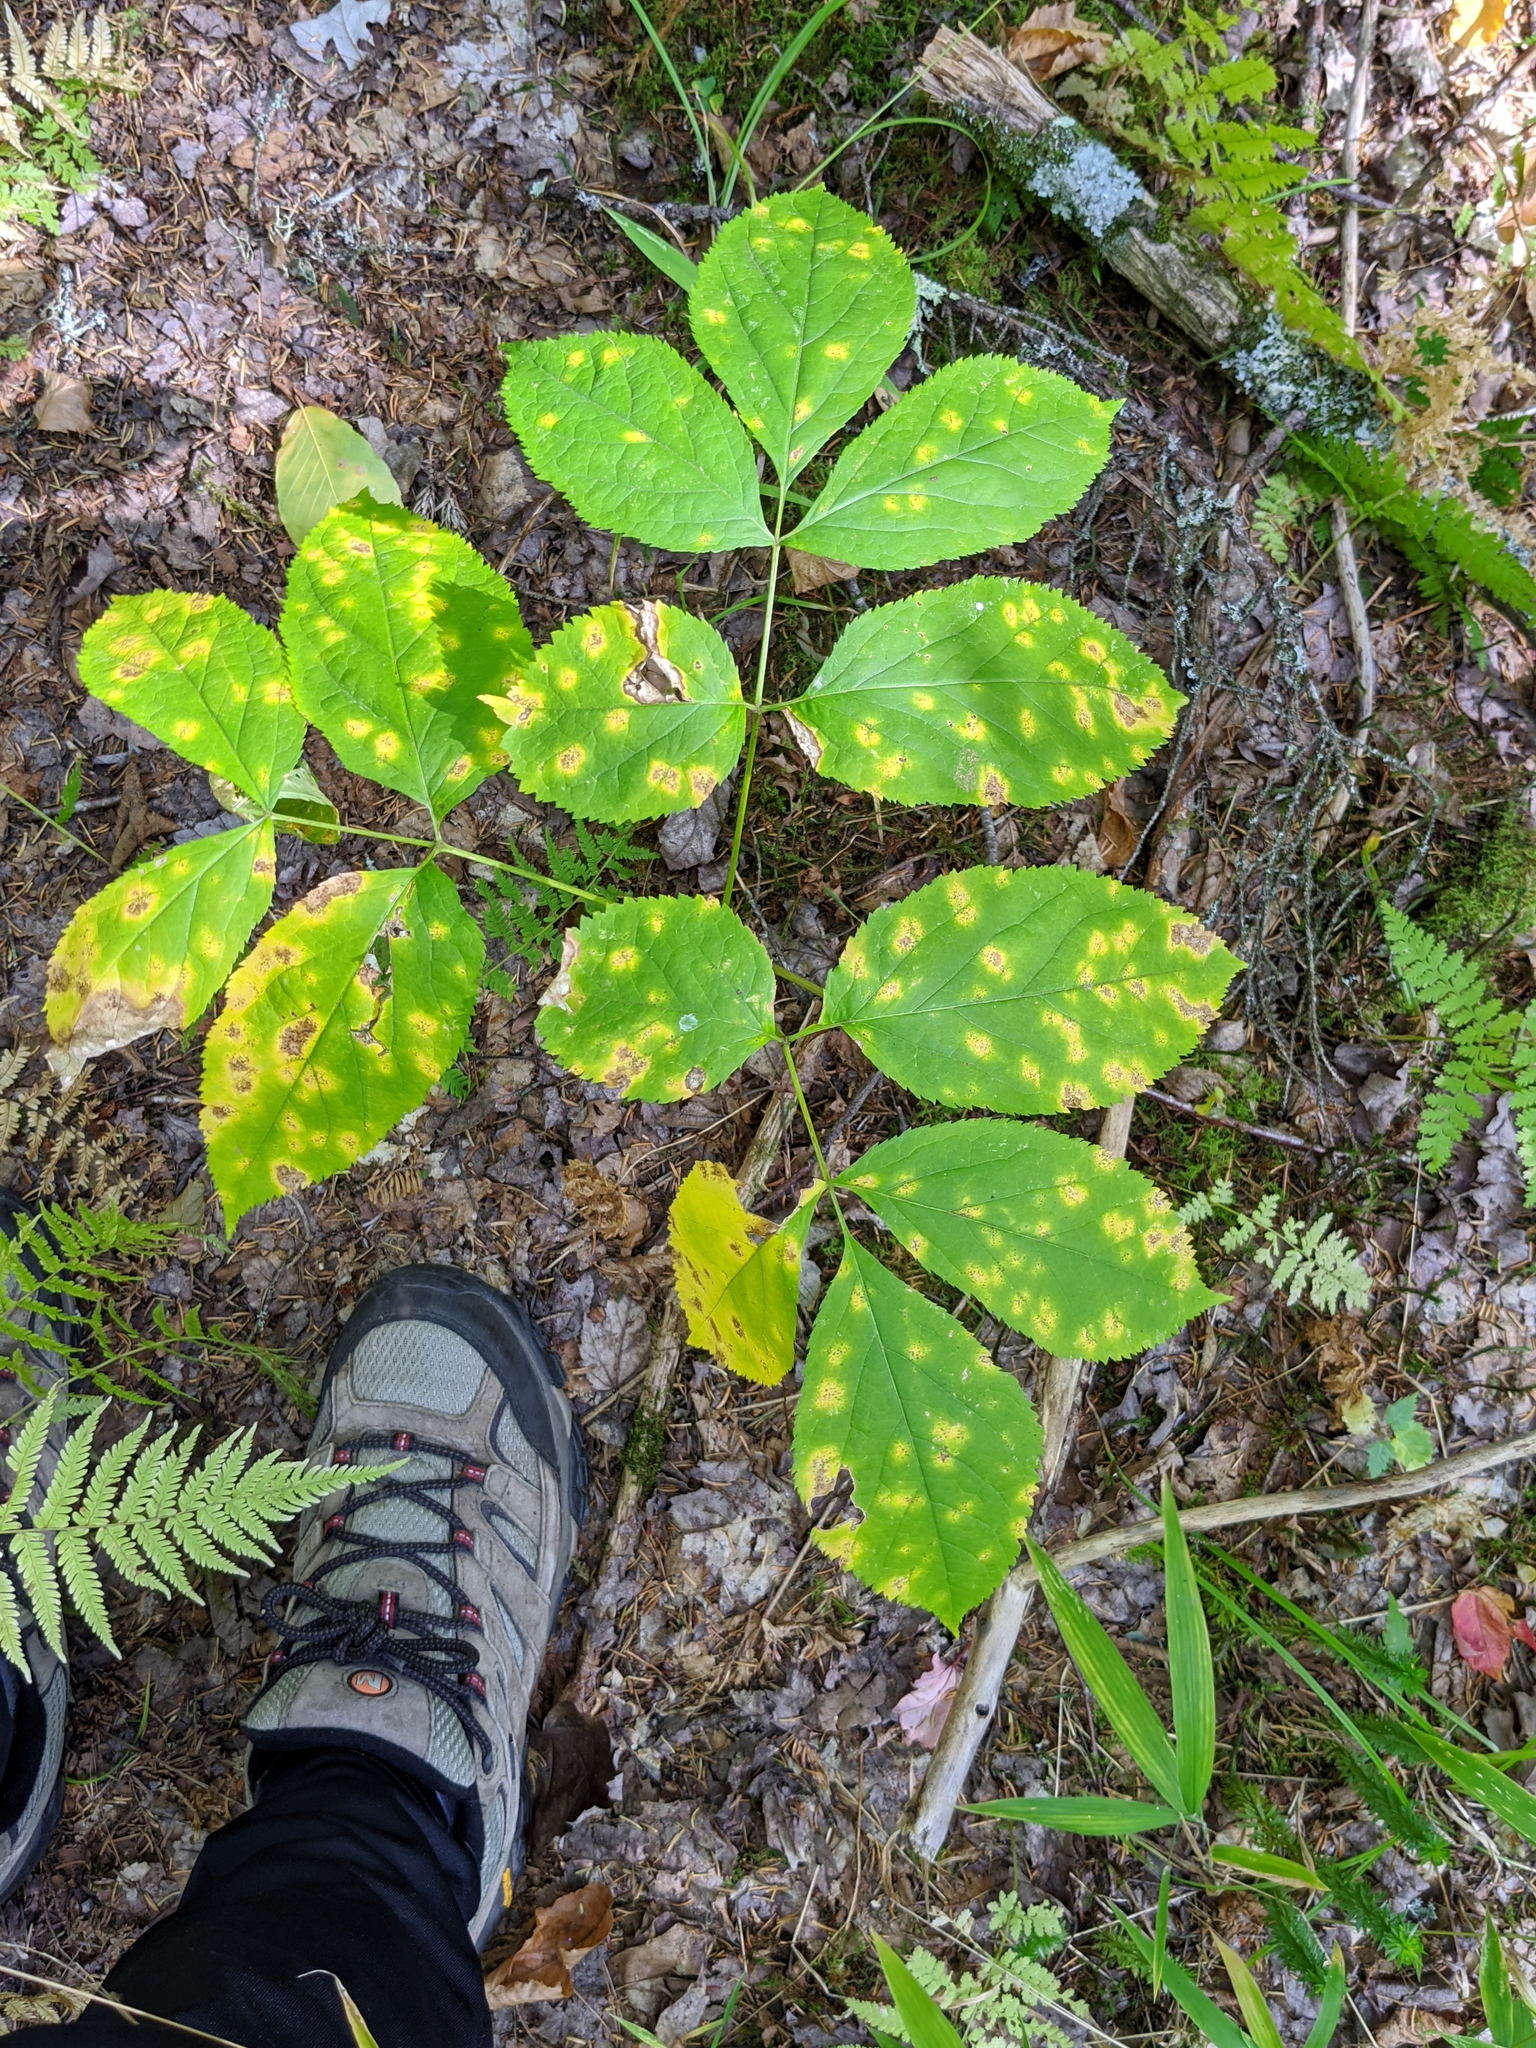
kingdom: Plantae
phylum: Tracheophyta
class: Magnoliopsida
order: Apiales
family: Araliaceae
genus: Aralia
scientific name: Aralia nudicaulis
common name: Wild sarsaparilla
